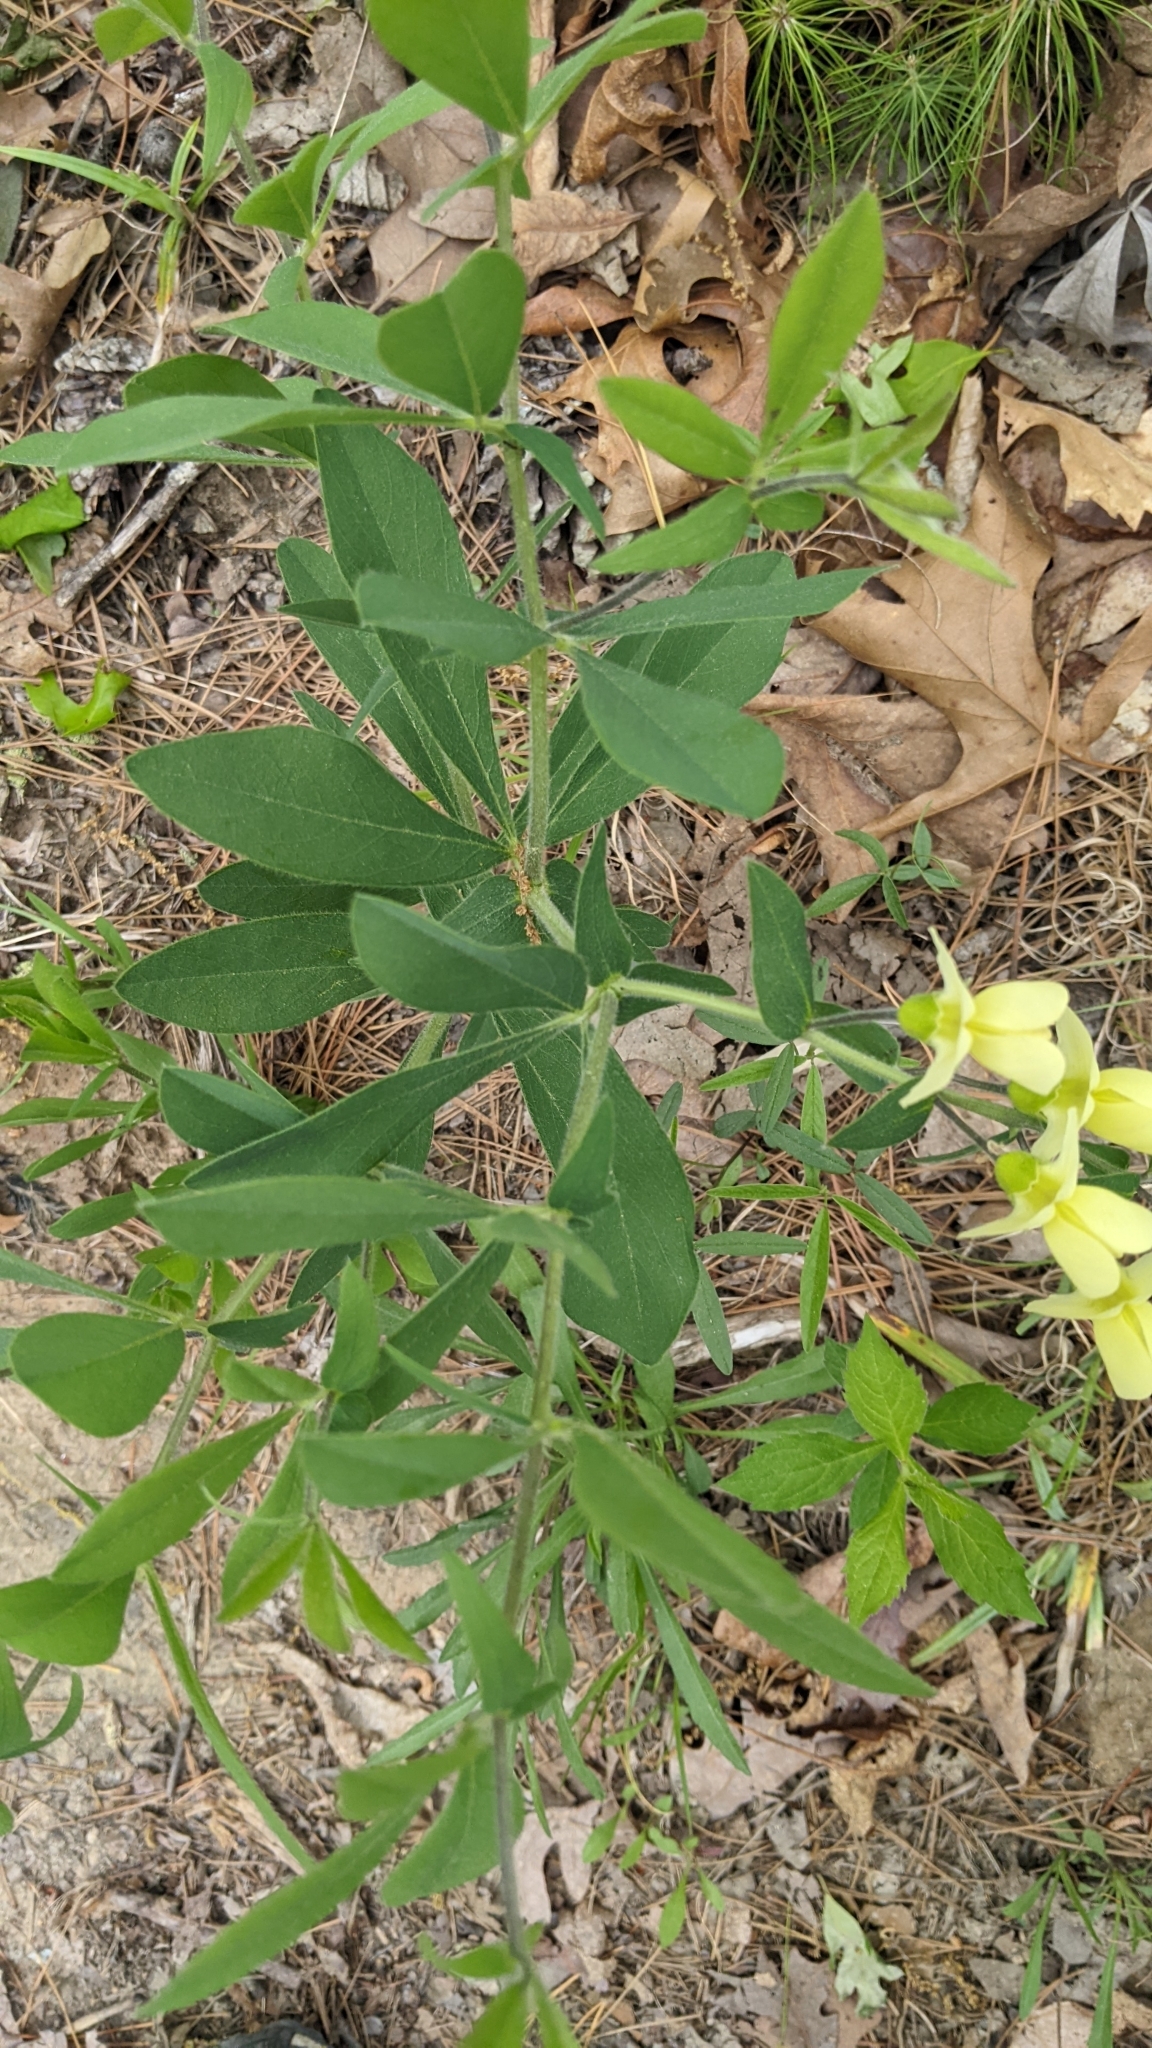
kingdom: Plantae
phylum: Tracheophyta
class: Magnoliopsida
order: Fabales
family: Fabaceae
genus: Baptisia
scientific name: Baptisia bracteata
